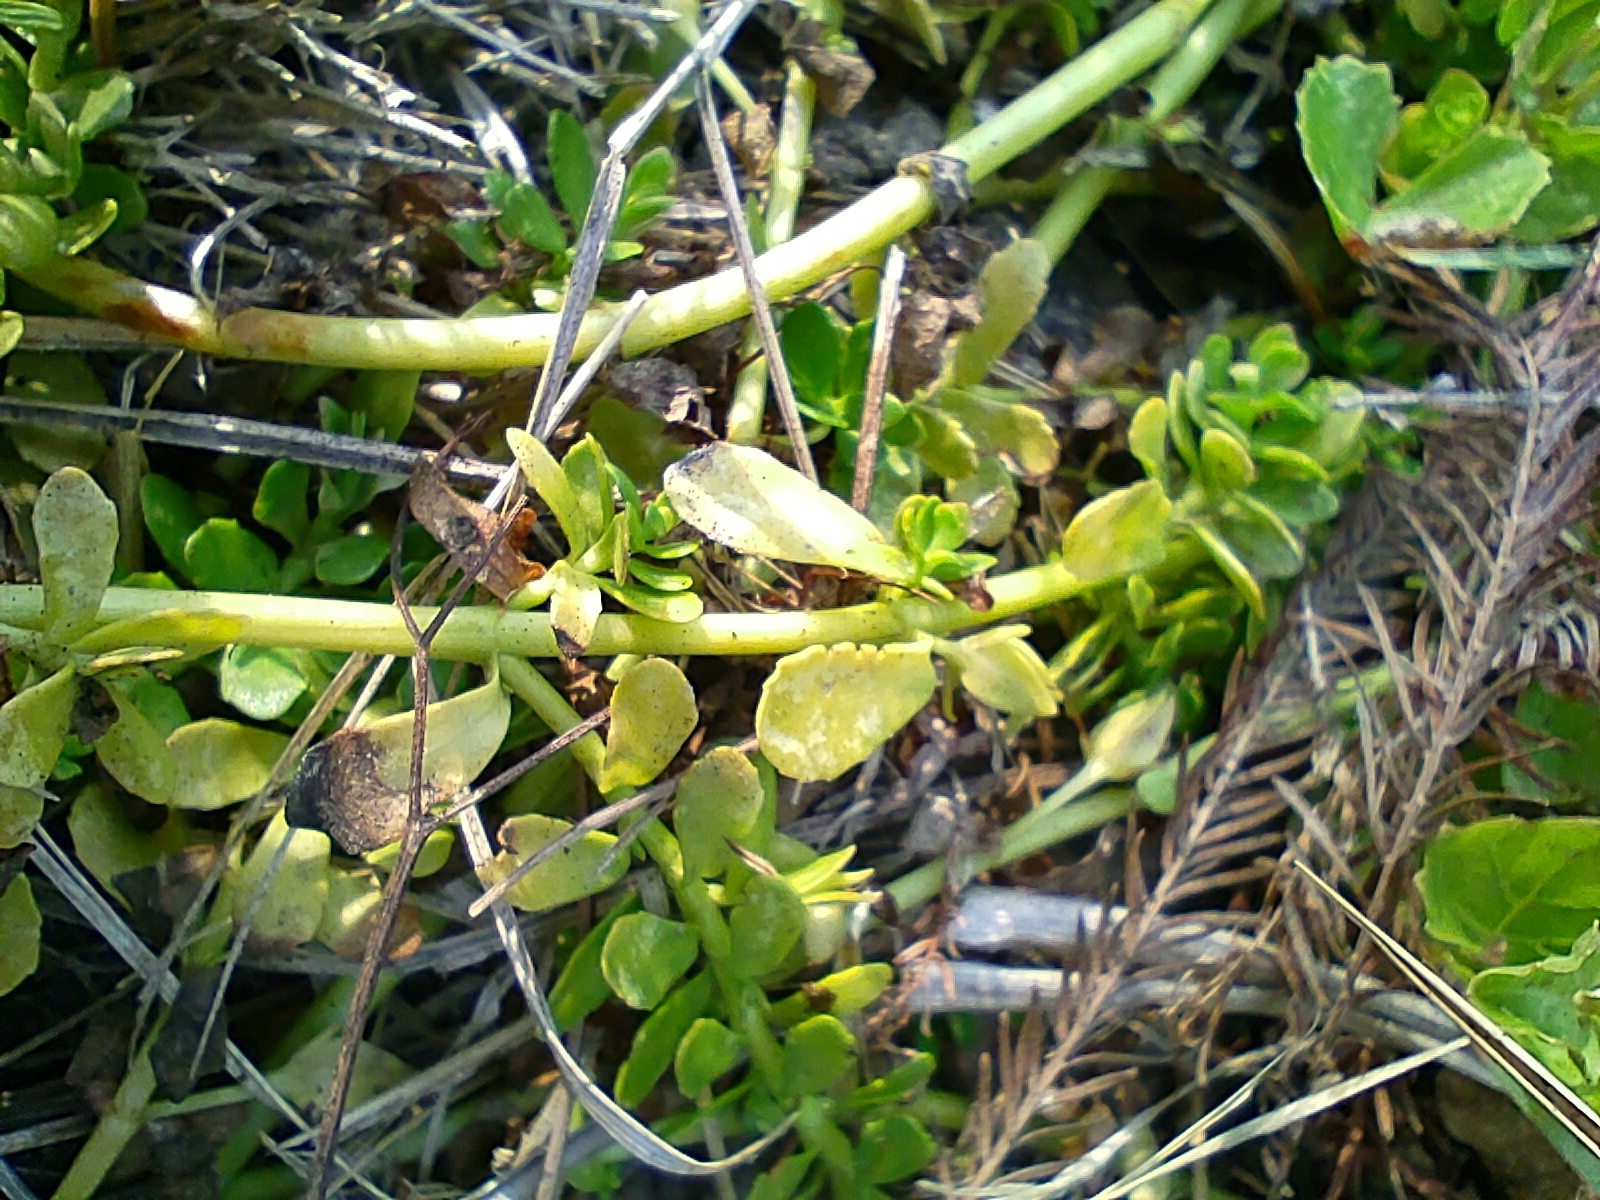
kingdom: Plantae
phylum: Tracheophyta
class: Magnoliopsida
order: Lamiales
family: Plantaginaceae
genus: Bacopa
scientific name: Bacopa monnieri
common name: Indian-pennywort
